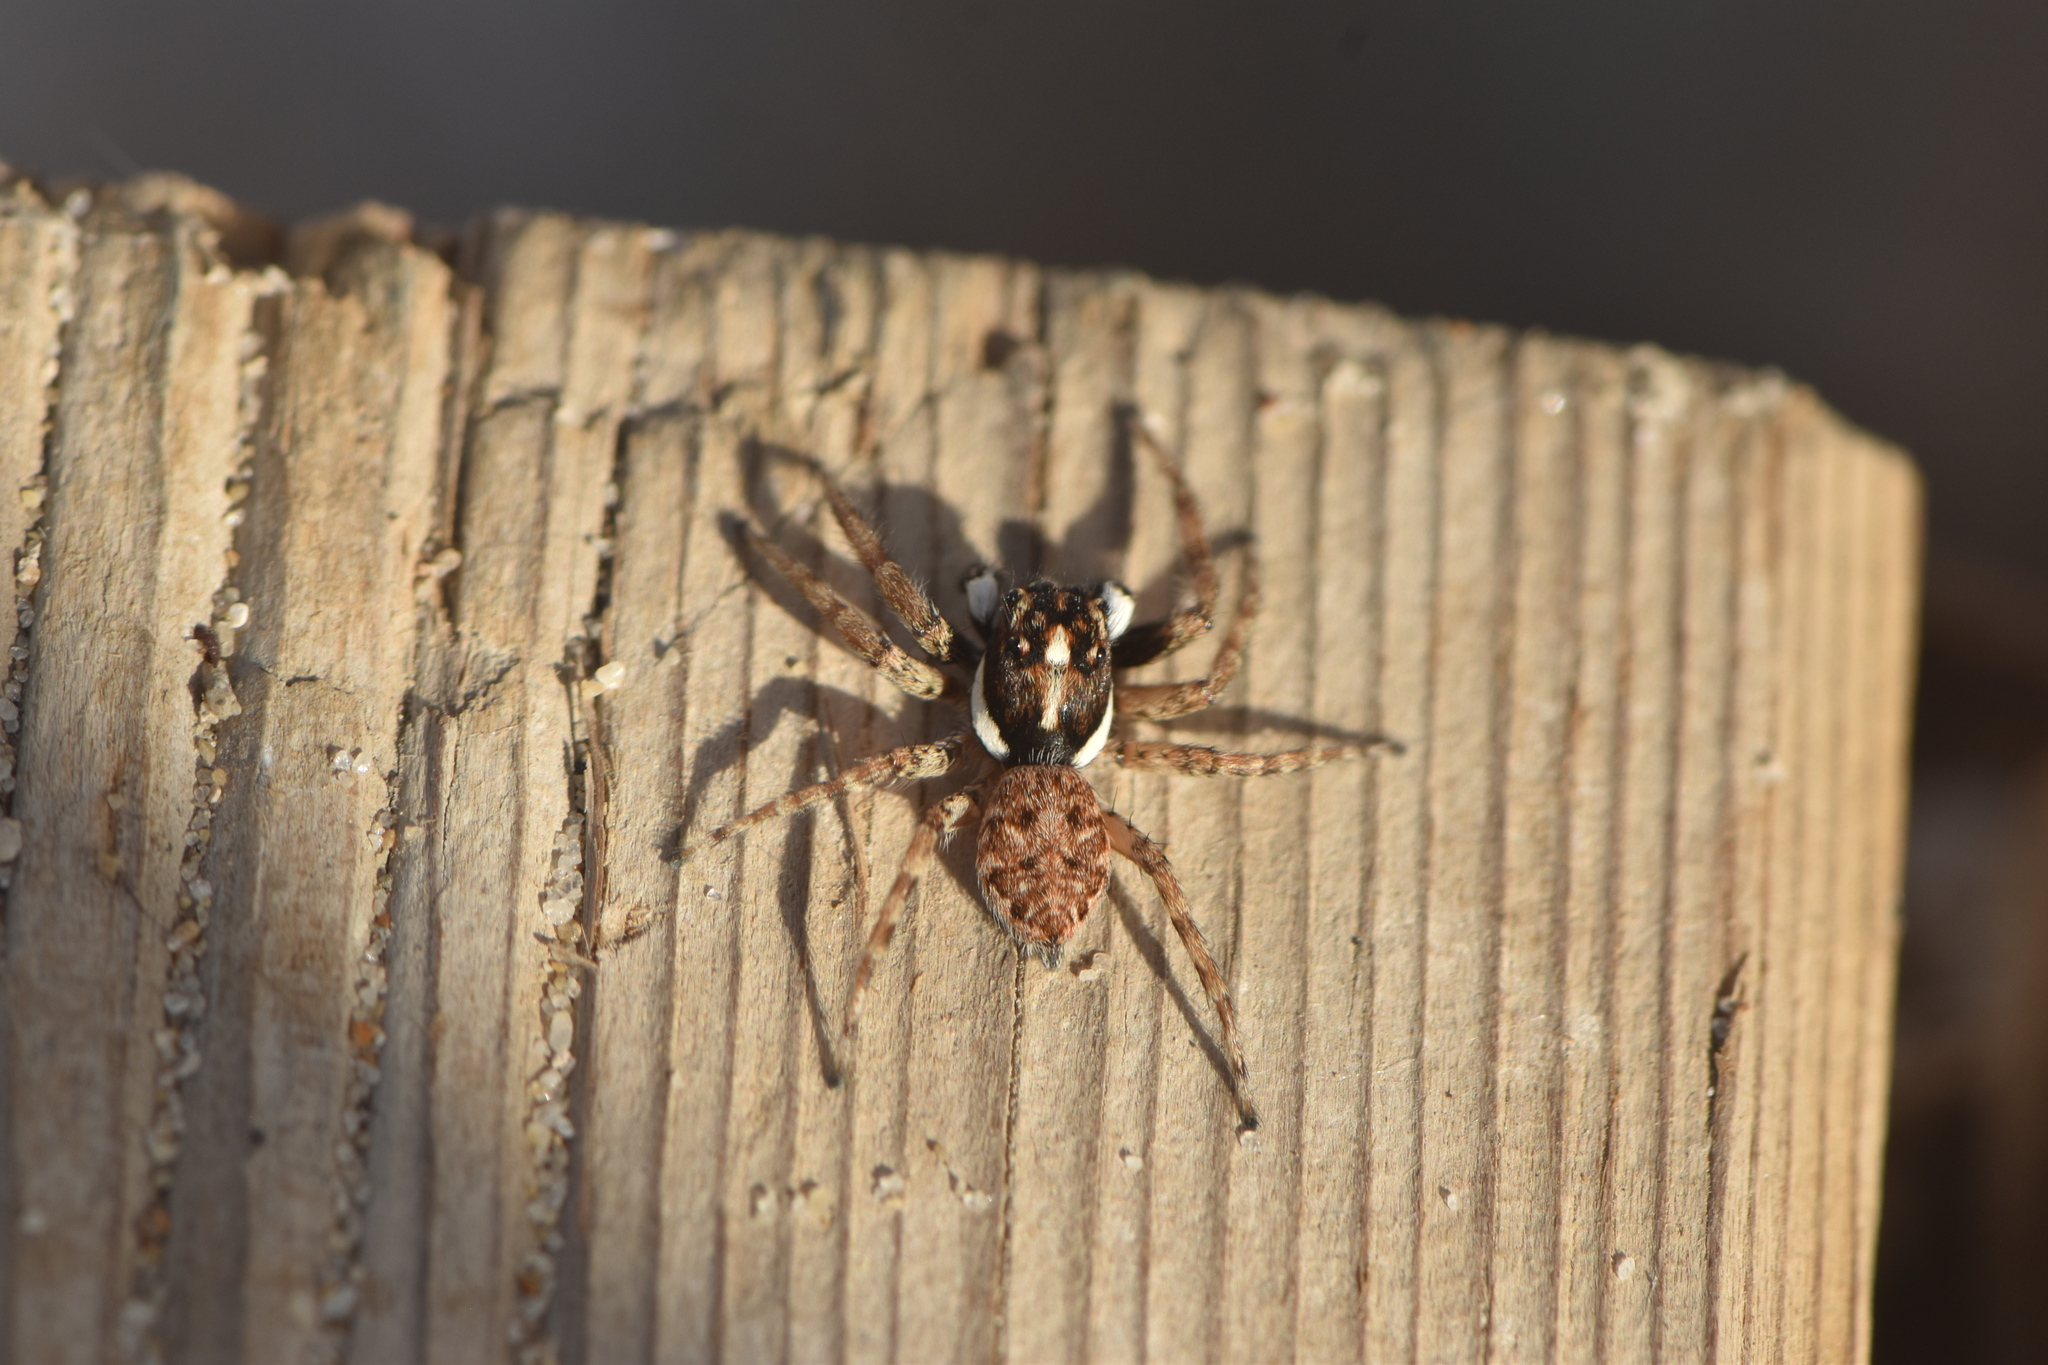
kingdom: Animalia
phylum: Arthropoda
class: Arachnida
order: Araneae
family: Salticidae
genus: Menemerus
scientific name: Menemerus semilimbatus
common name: Jumping spider
